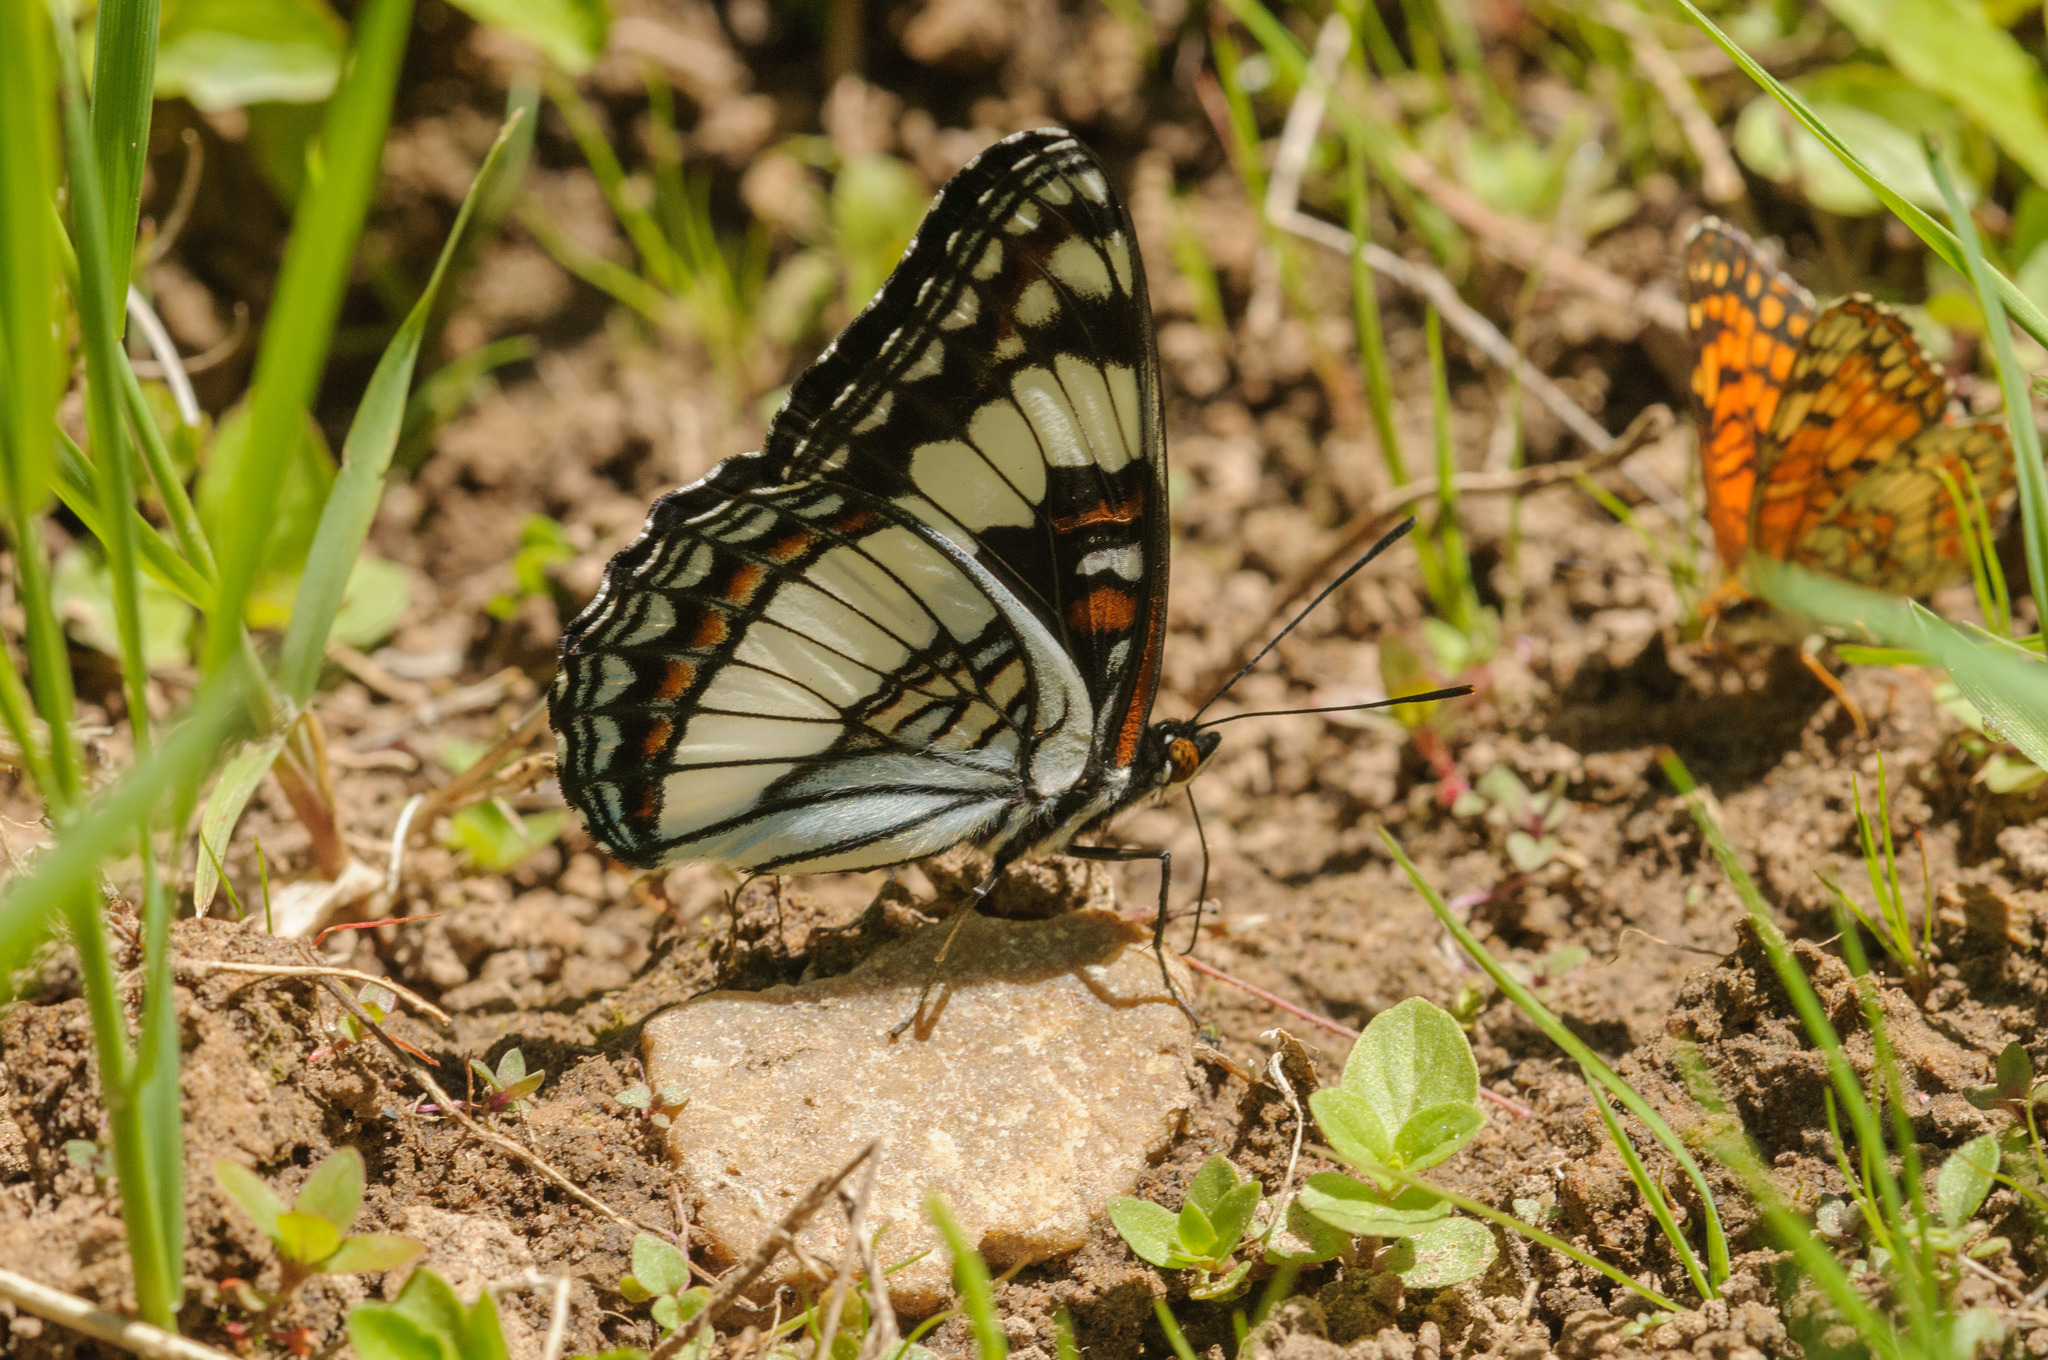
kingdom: Animalia
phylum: Arthropoda
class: Insecta
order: Lepidoptera
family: Nymphalidae
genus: Limenitis
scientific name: Limenitis weidemeyerii
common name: Weidemeyer's admiral
